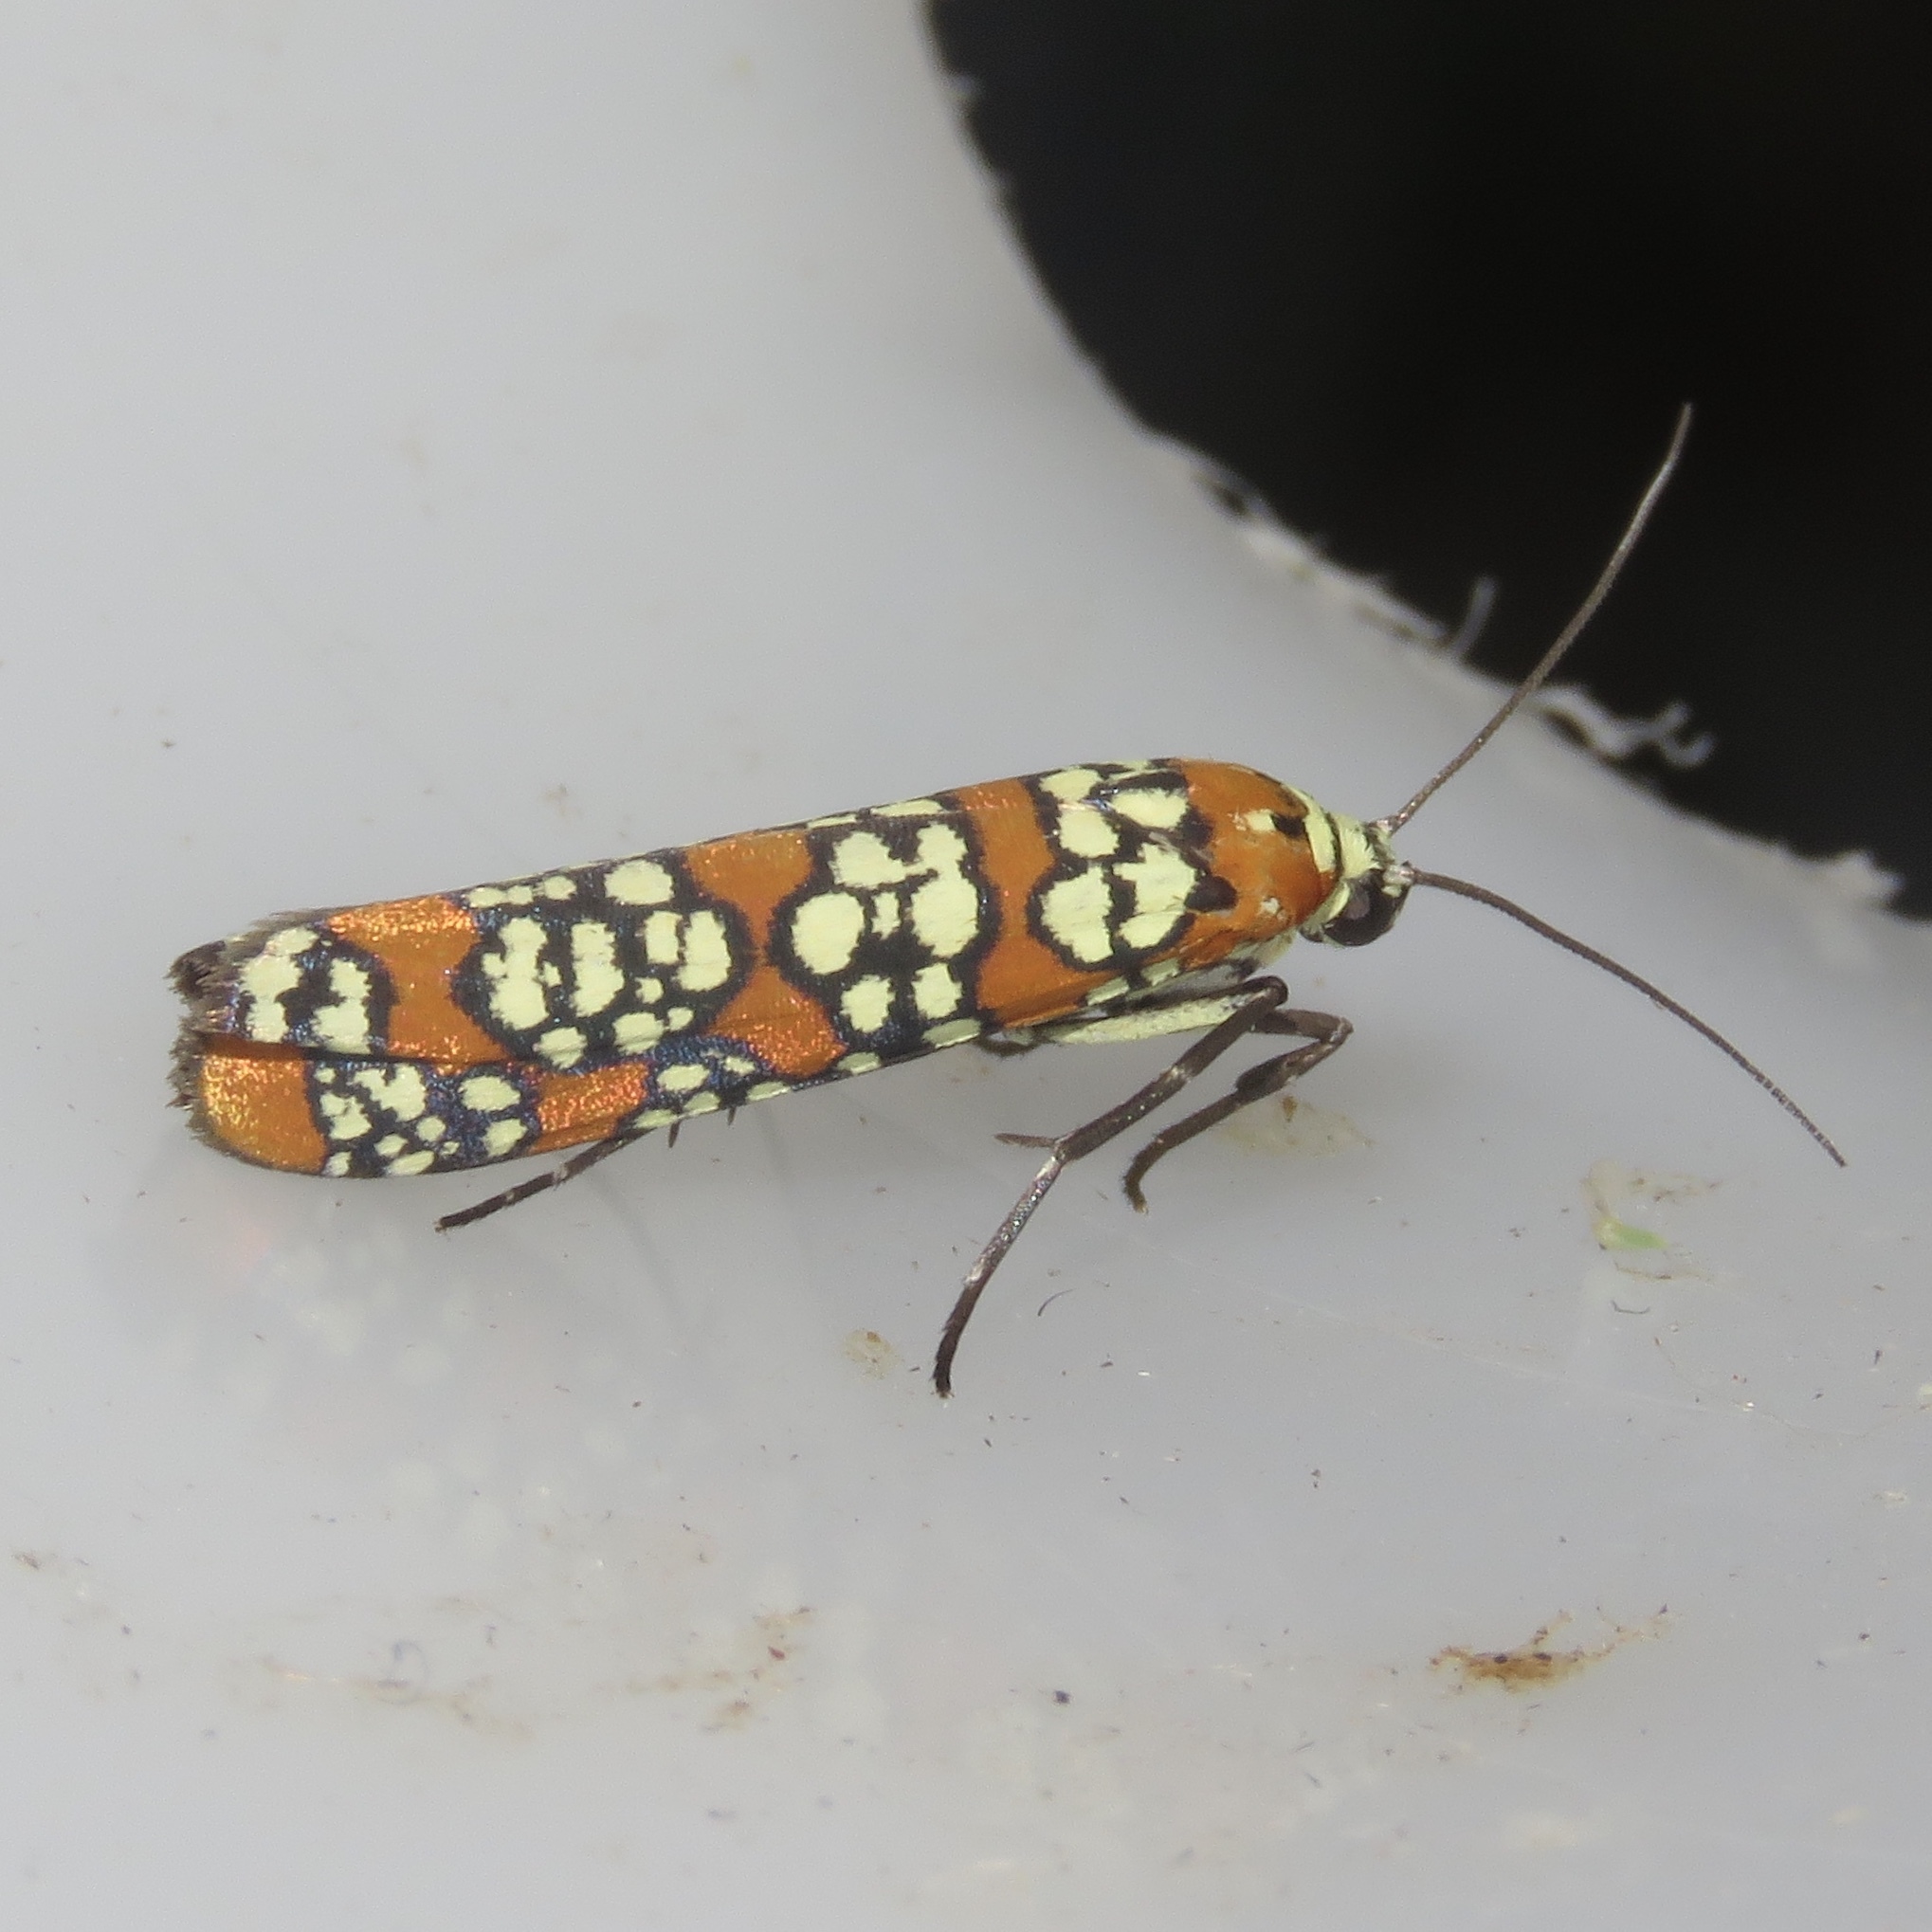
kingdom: Animalia
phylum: Arthropoda
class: Insecta
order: Lepidoptera
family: Attevidae
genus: Atteva
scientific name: Atteva punctella
